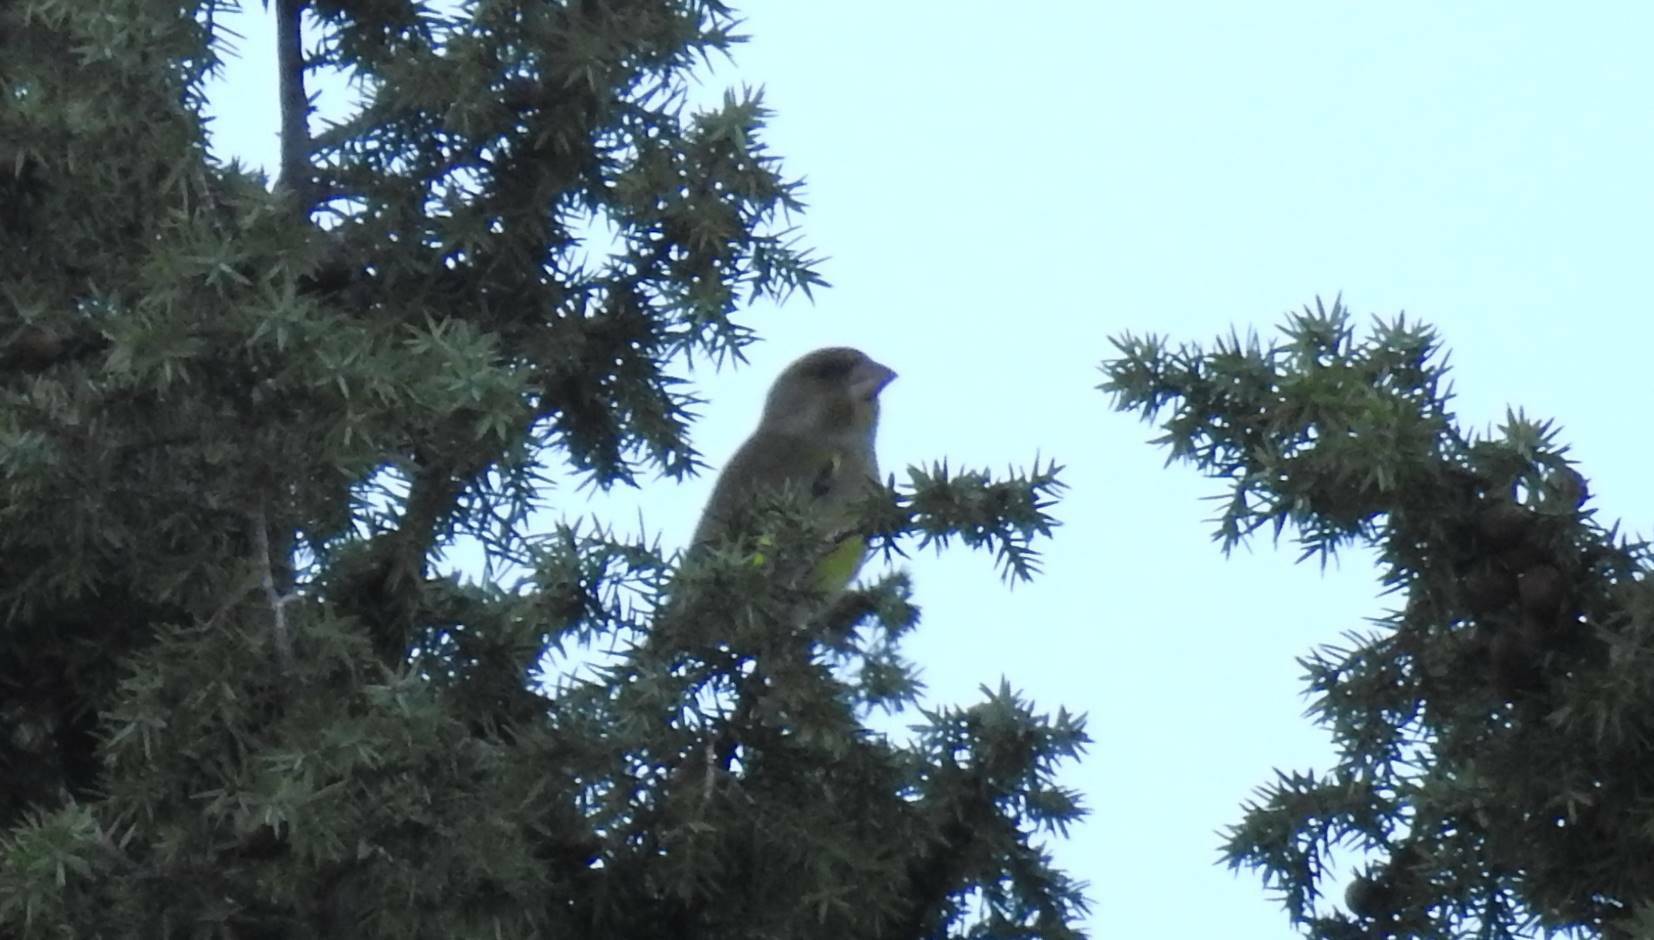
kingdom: Plantae
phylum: Tracheophyta
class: Liliopsida
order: Poales
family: Poaceae
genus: Chloris
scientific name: Chloris chloris
